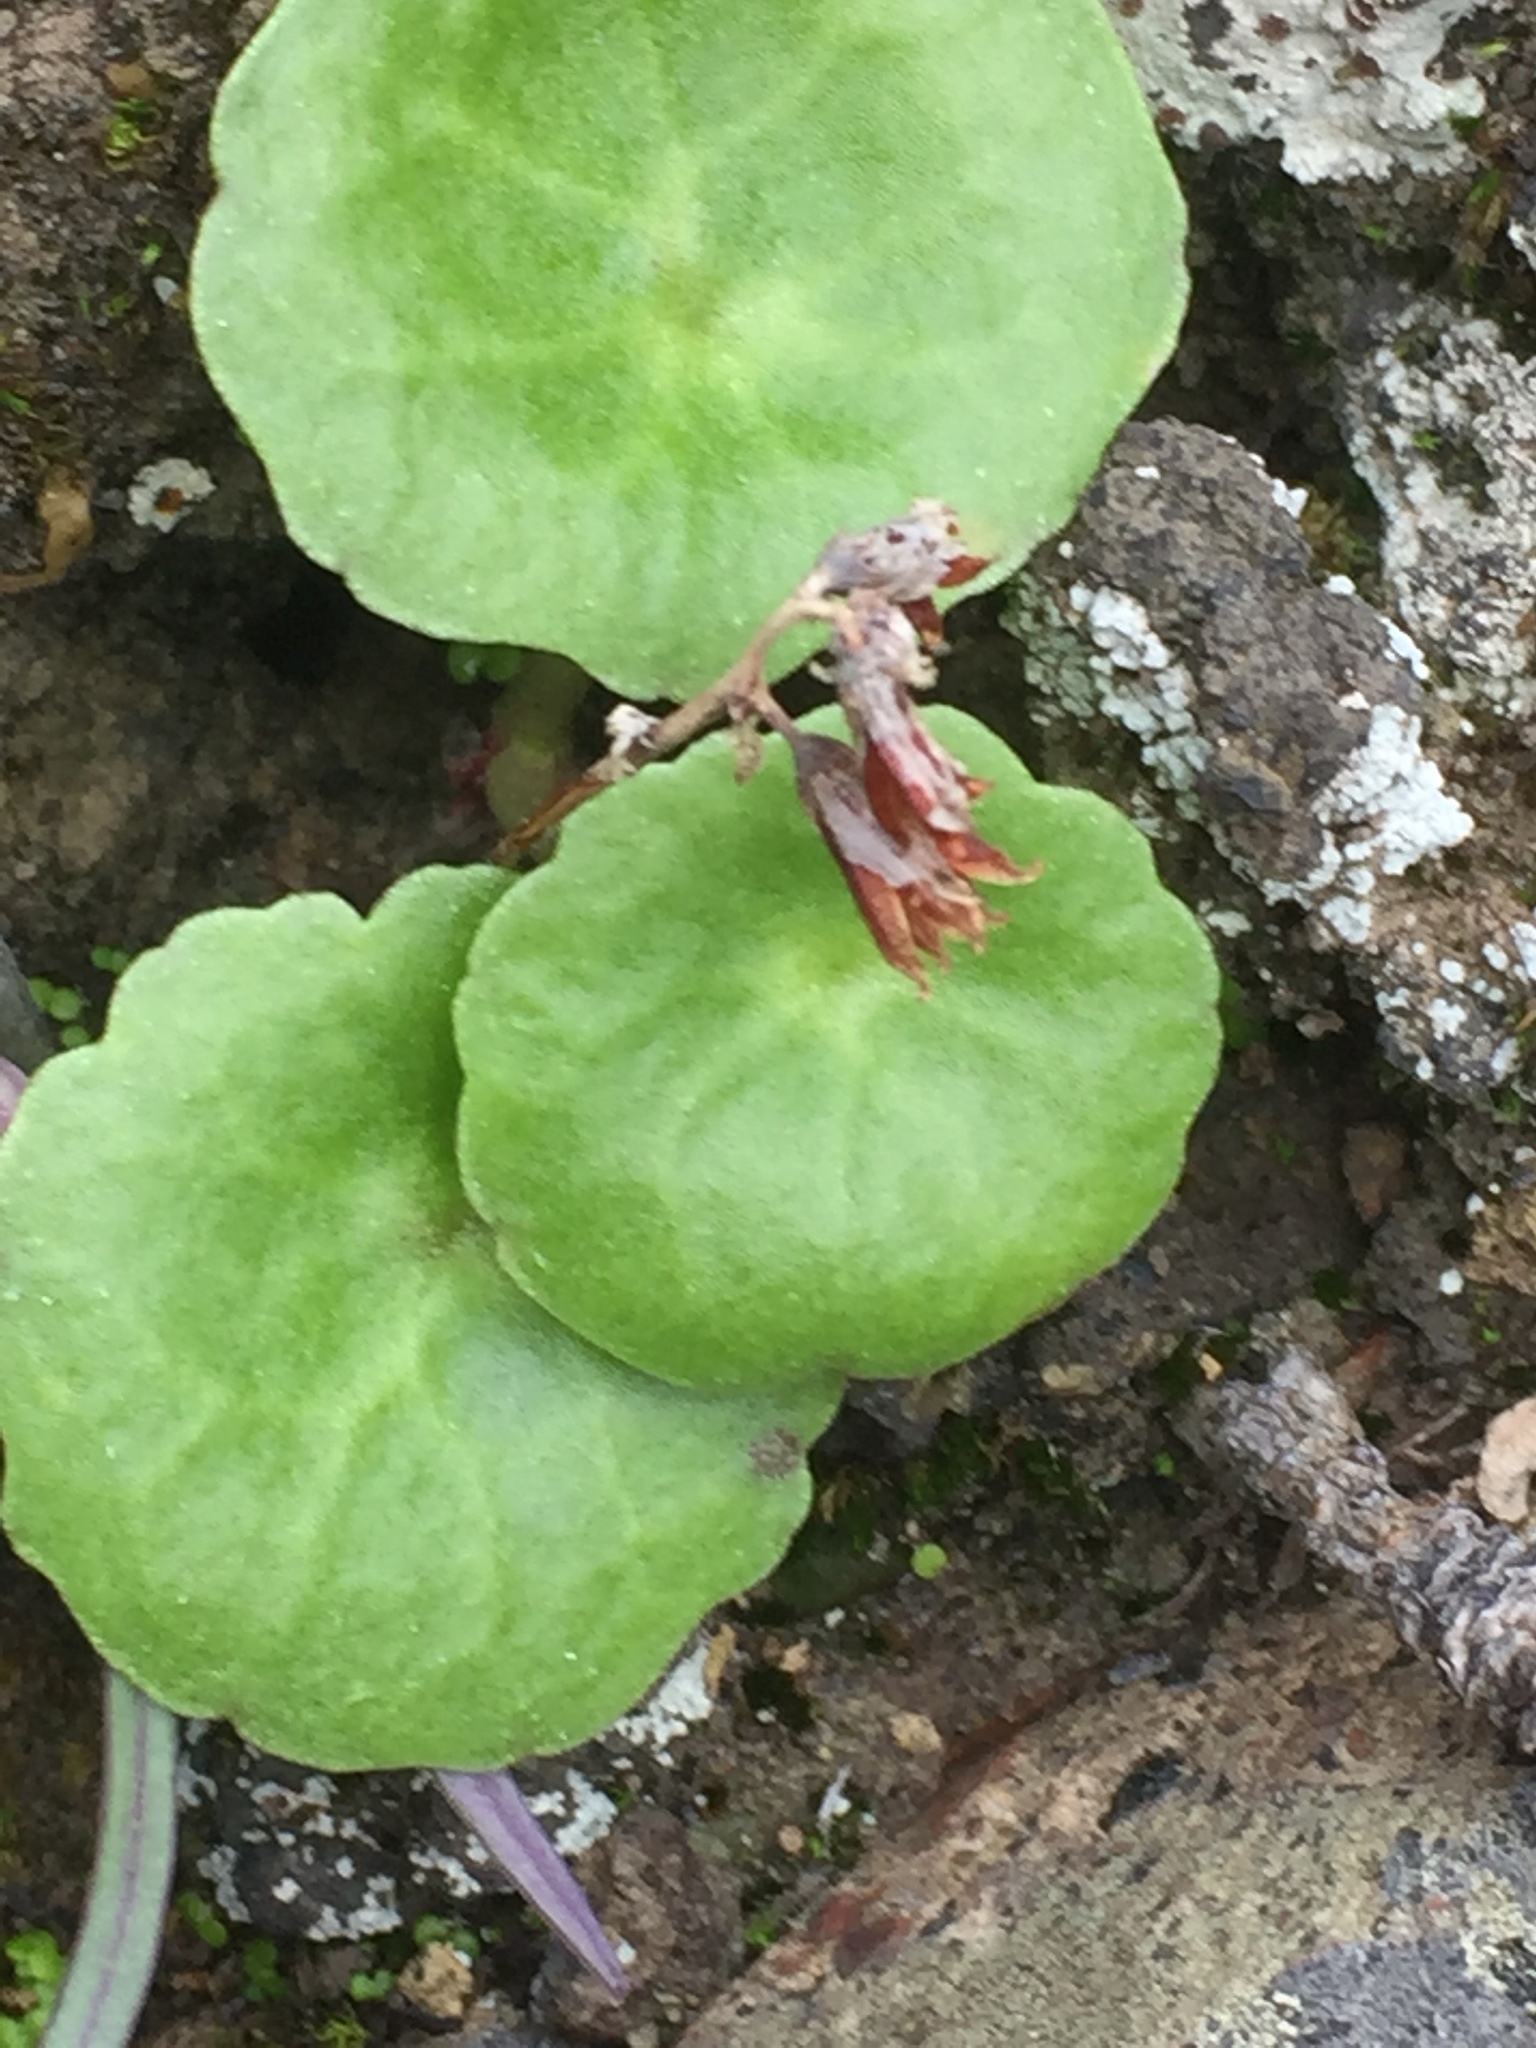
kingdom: Plantae
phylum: Tracheophyta
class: Magnoliopsida
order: Saxifragales
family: Crassulaceae
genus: Umbilicus
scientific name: Umbilicus horizontalis
